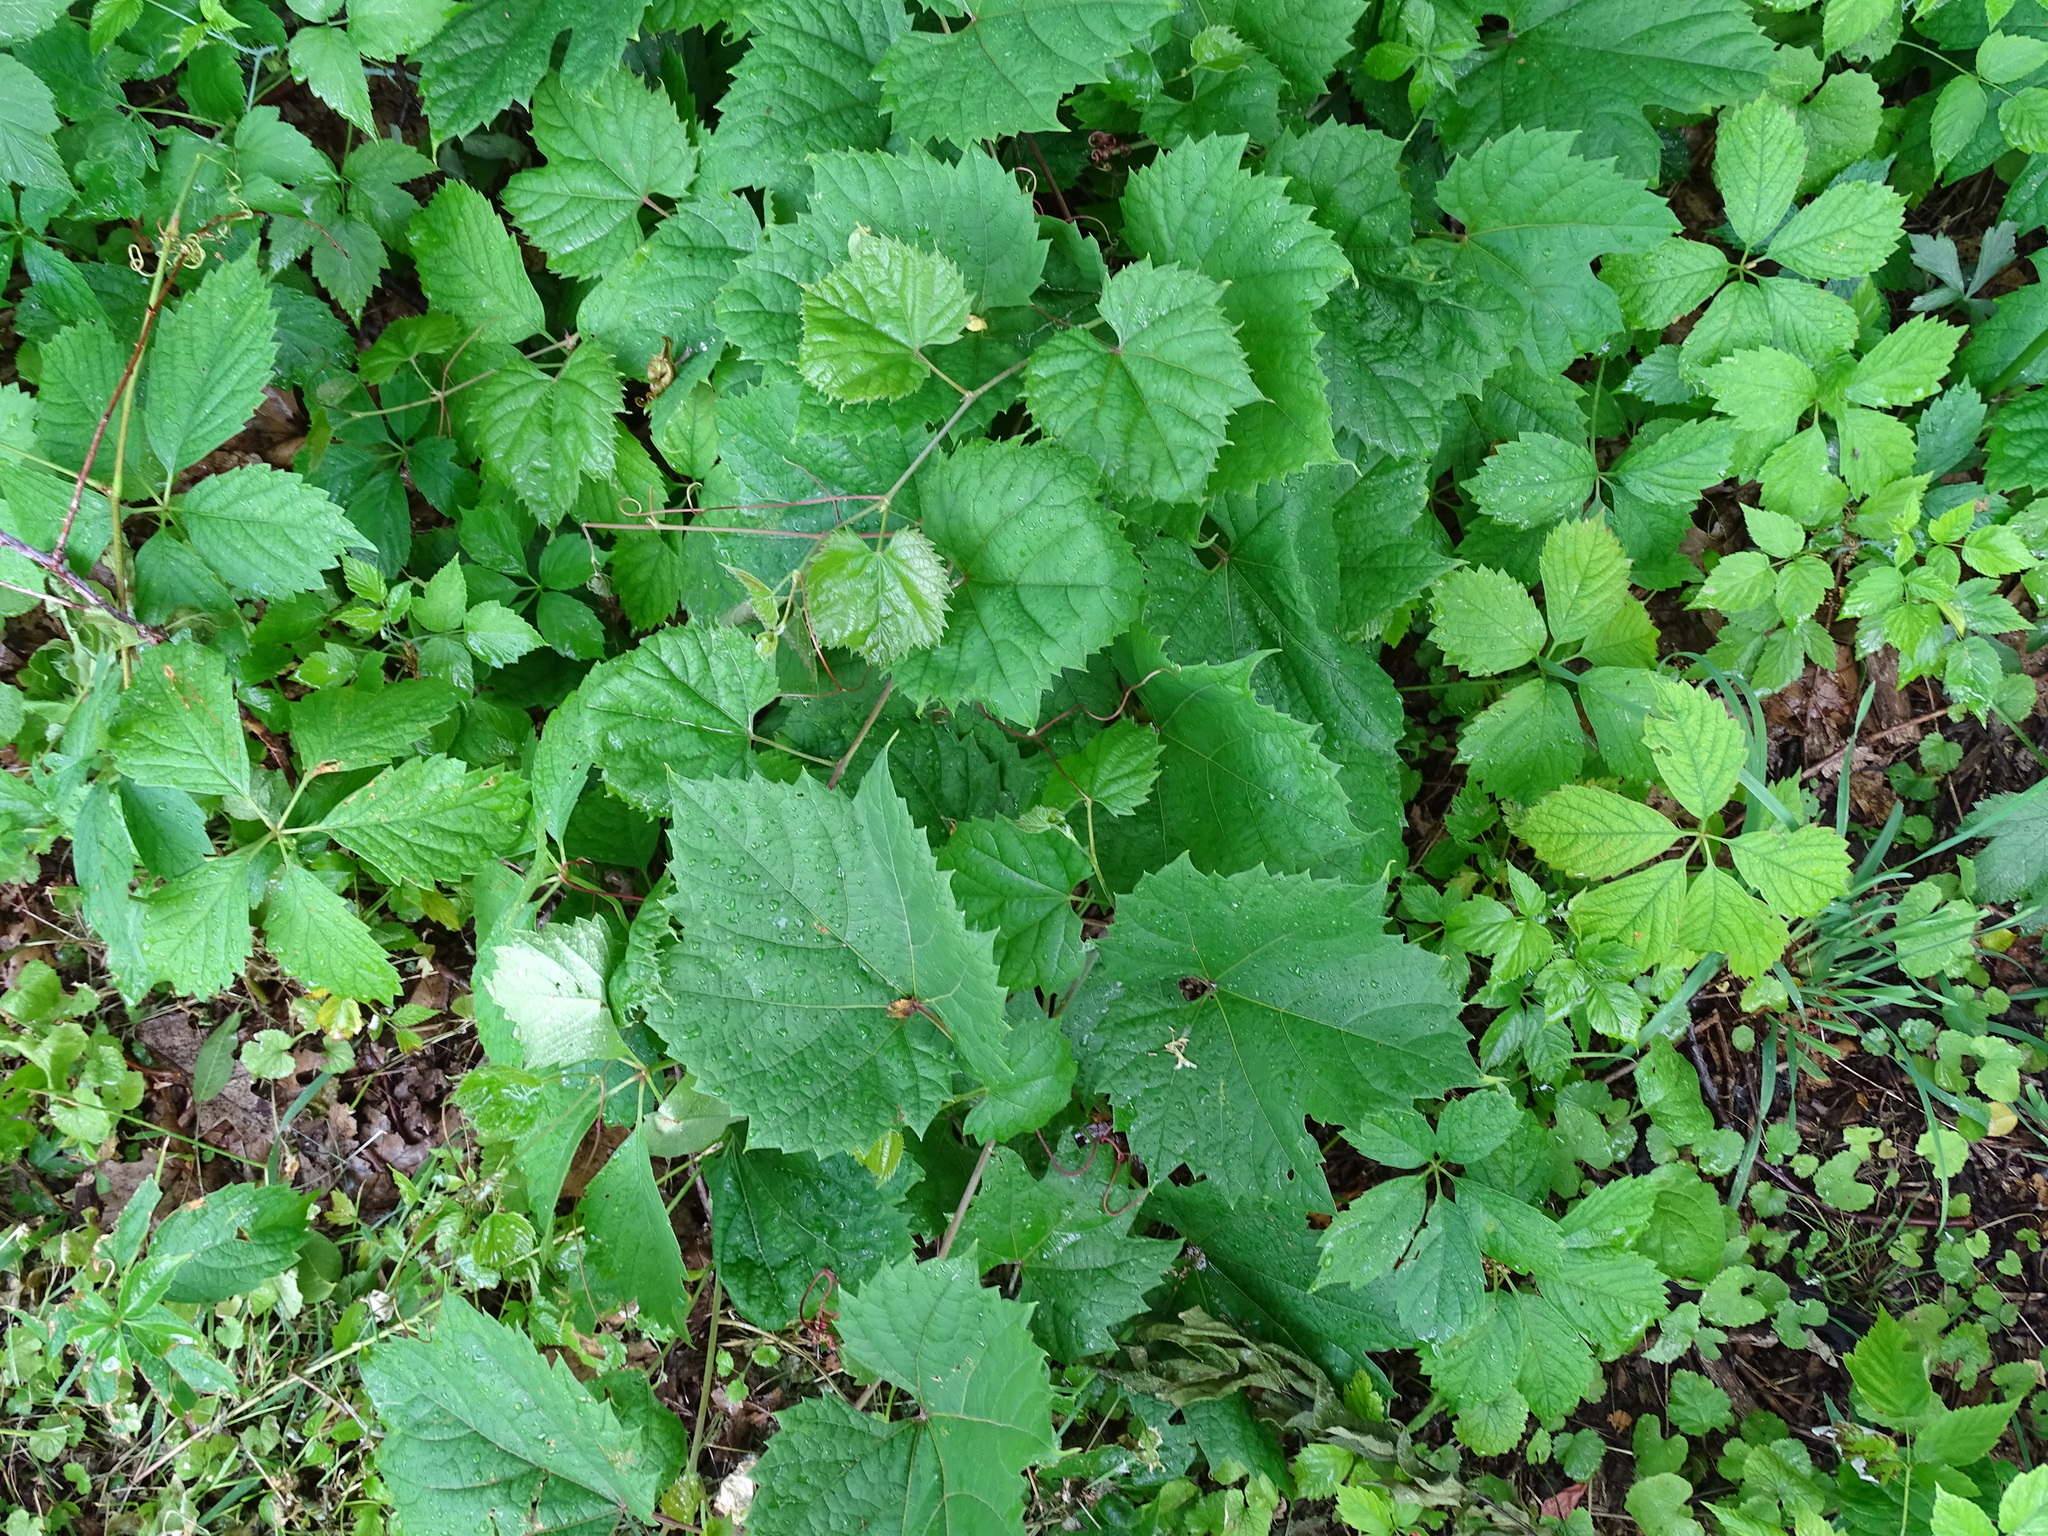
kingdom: Plantae
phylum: Tracheophyta
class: Magnoliopsida
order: Vitales
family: Vitaceae
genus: Vitis
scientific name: Vitis riparia
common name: Frost grape
